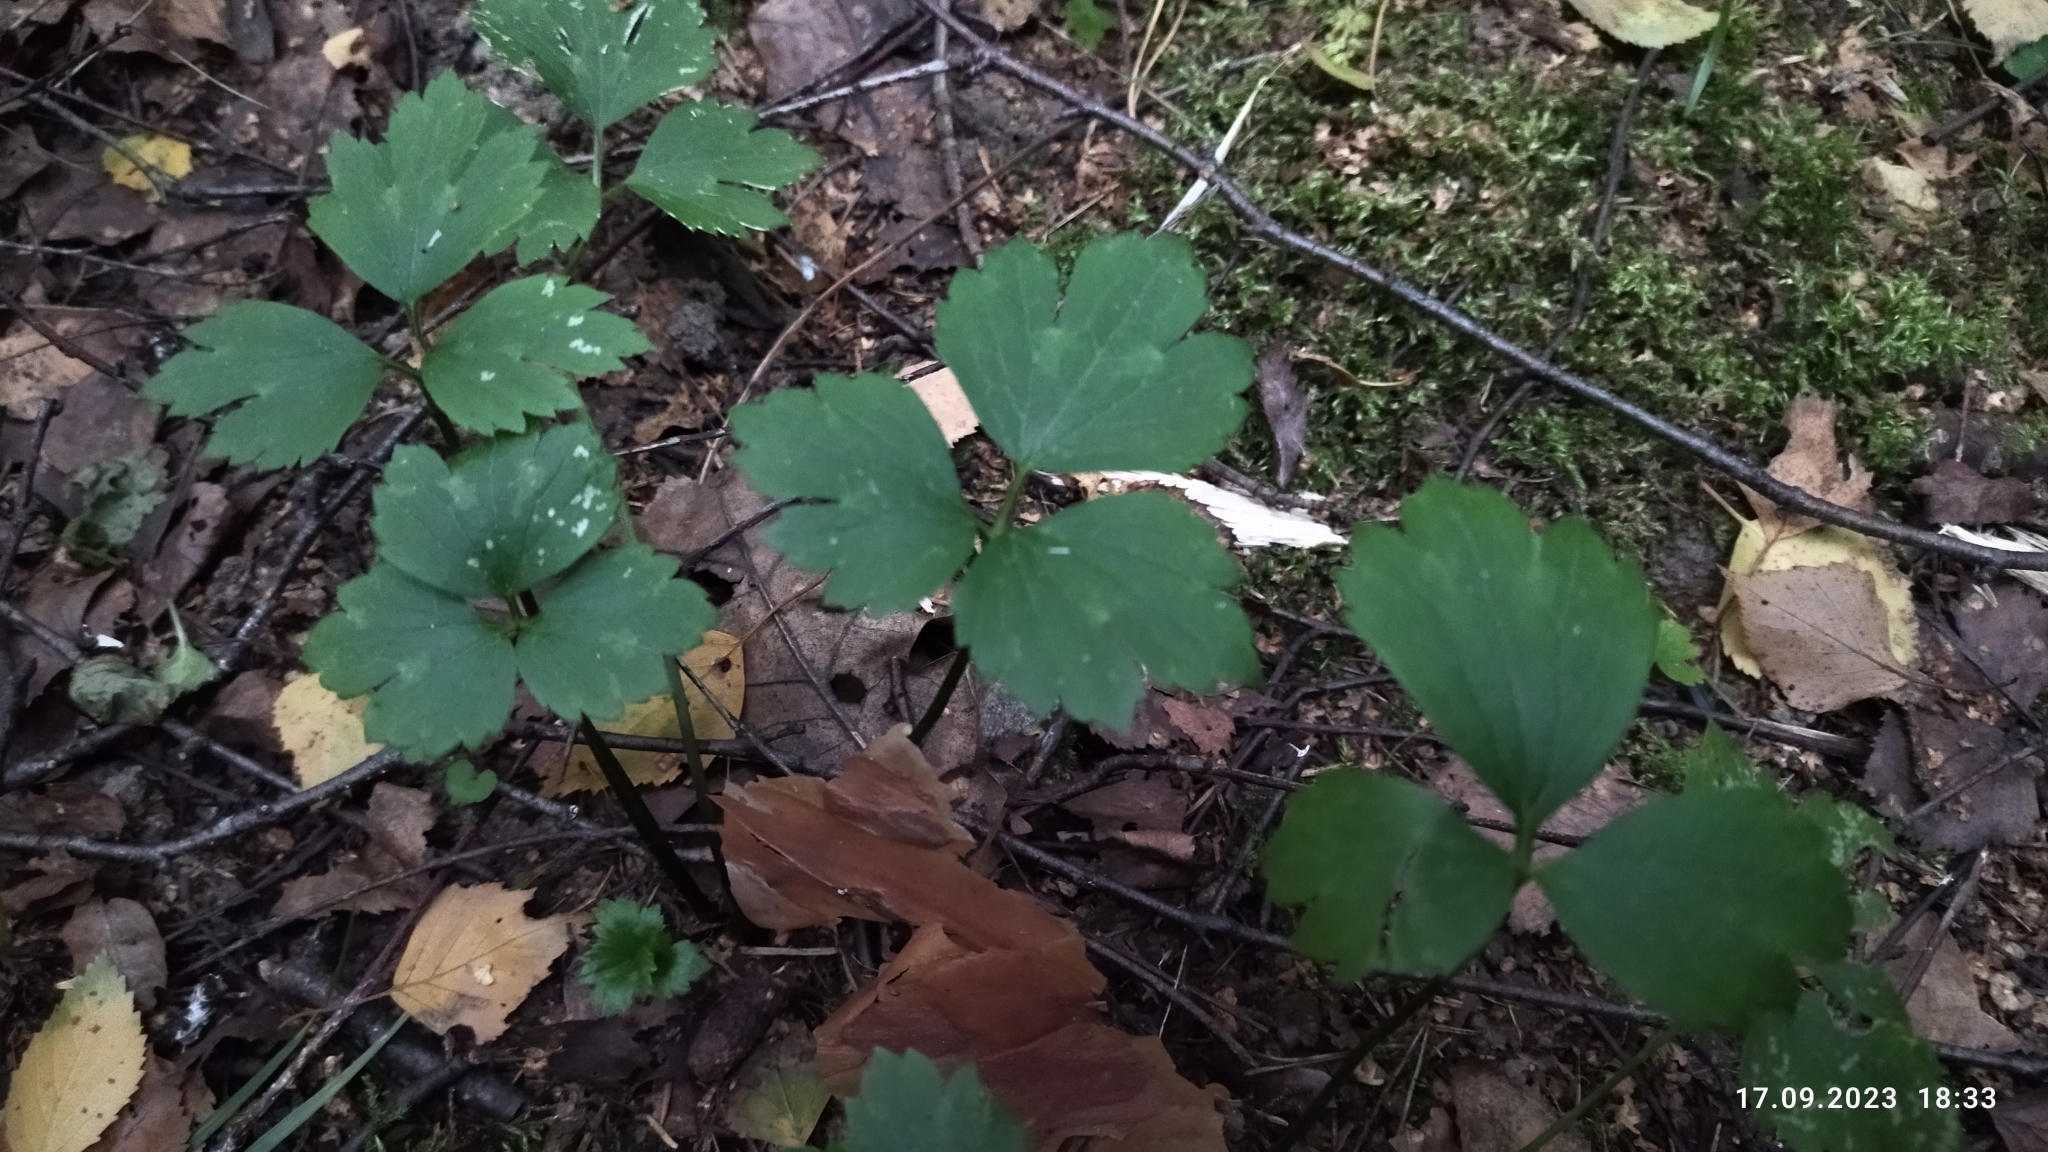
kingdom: Plantae
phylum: Tracheophyta
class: Magnoliopsida
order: Ranunculales
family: Ranunculaceae
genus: Ranunculus
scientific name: Ranunculus repens
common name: Creeping buttercup
